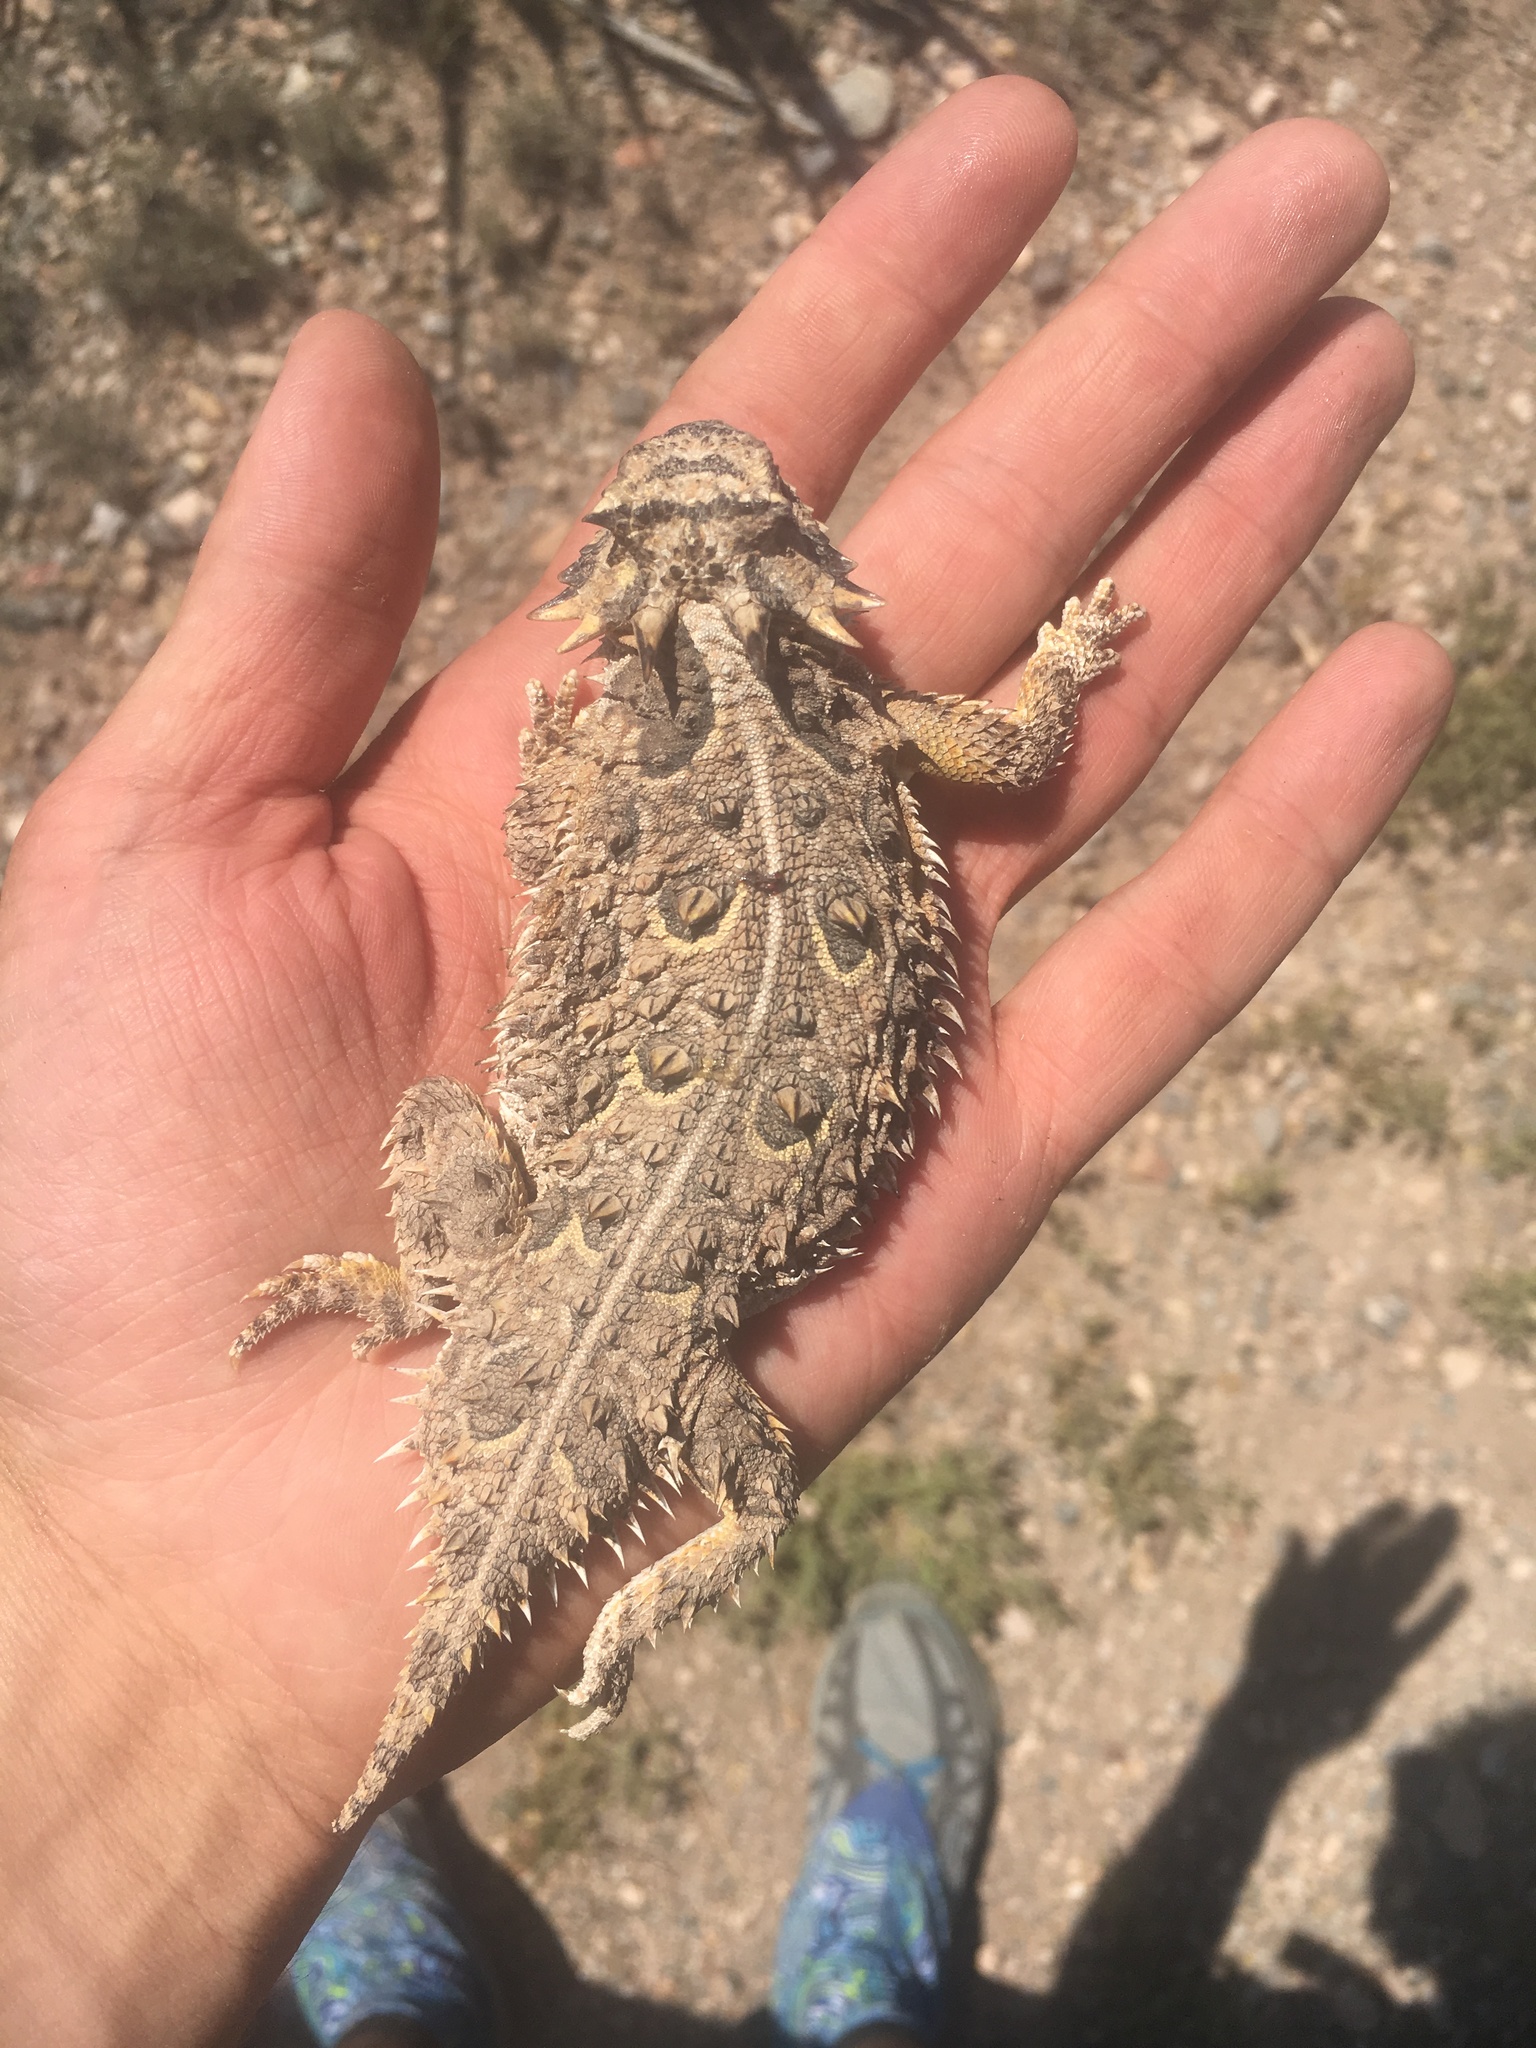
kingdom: Animalia
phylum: Chordata
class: Squamata
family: Phrynosomatidae
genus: Phrynosoma
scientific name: Phrynosoma cornutum
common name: Texas horned lizard
